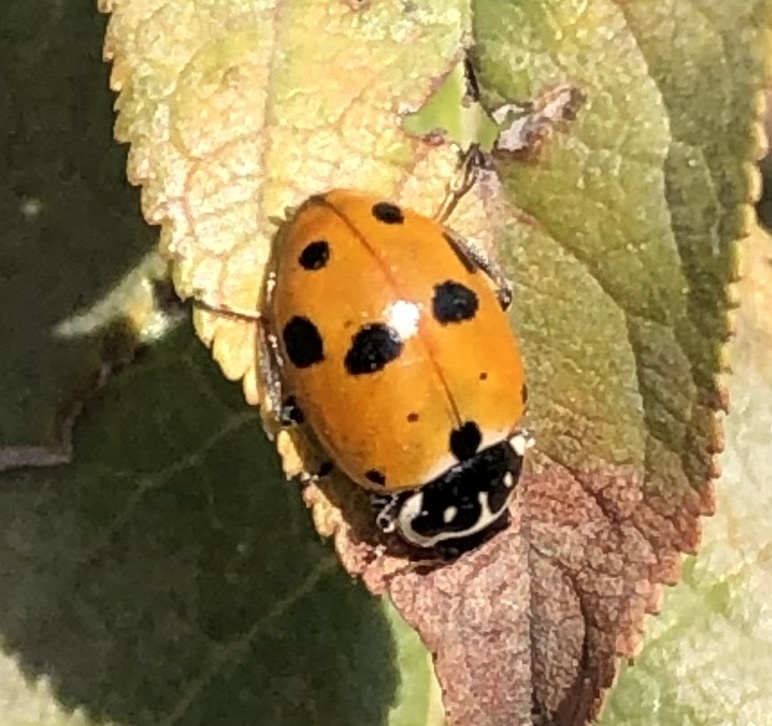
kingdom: Animalia
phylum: Arthropoda
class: Insecta
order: Coleoptera
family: Coccinellidae
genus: Hippodamia
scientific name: Hippodamia variegata
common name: Ladybird beetle
